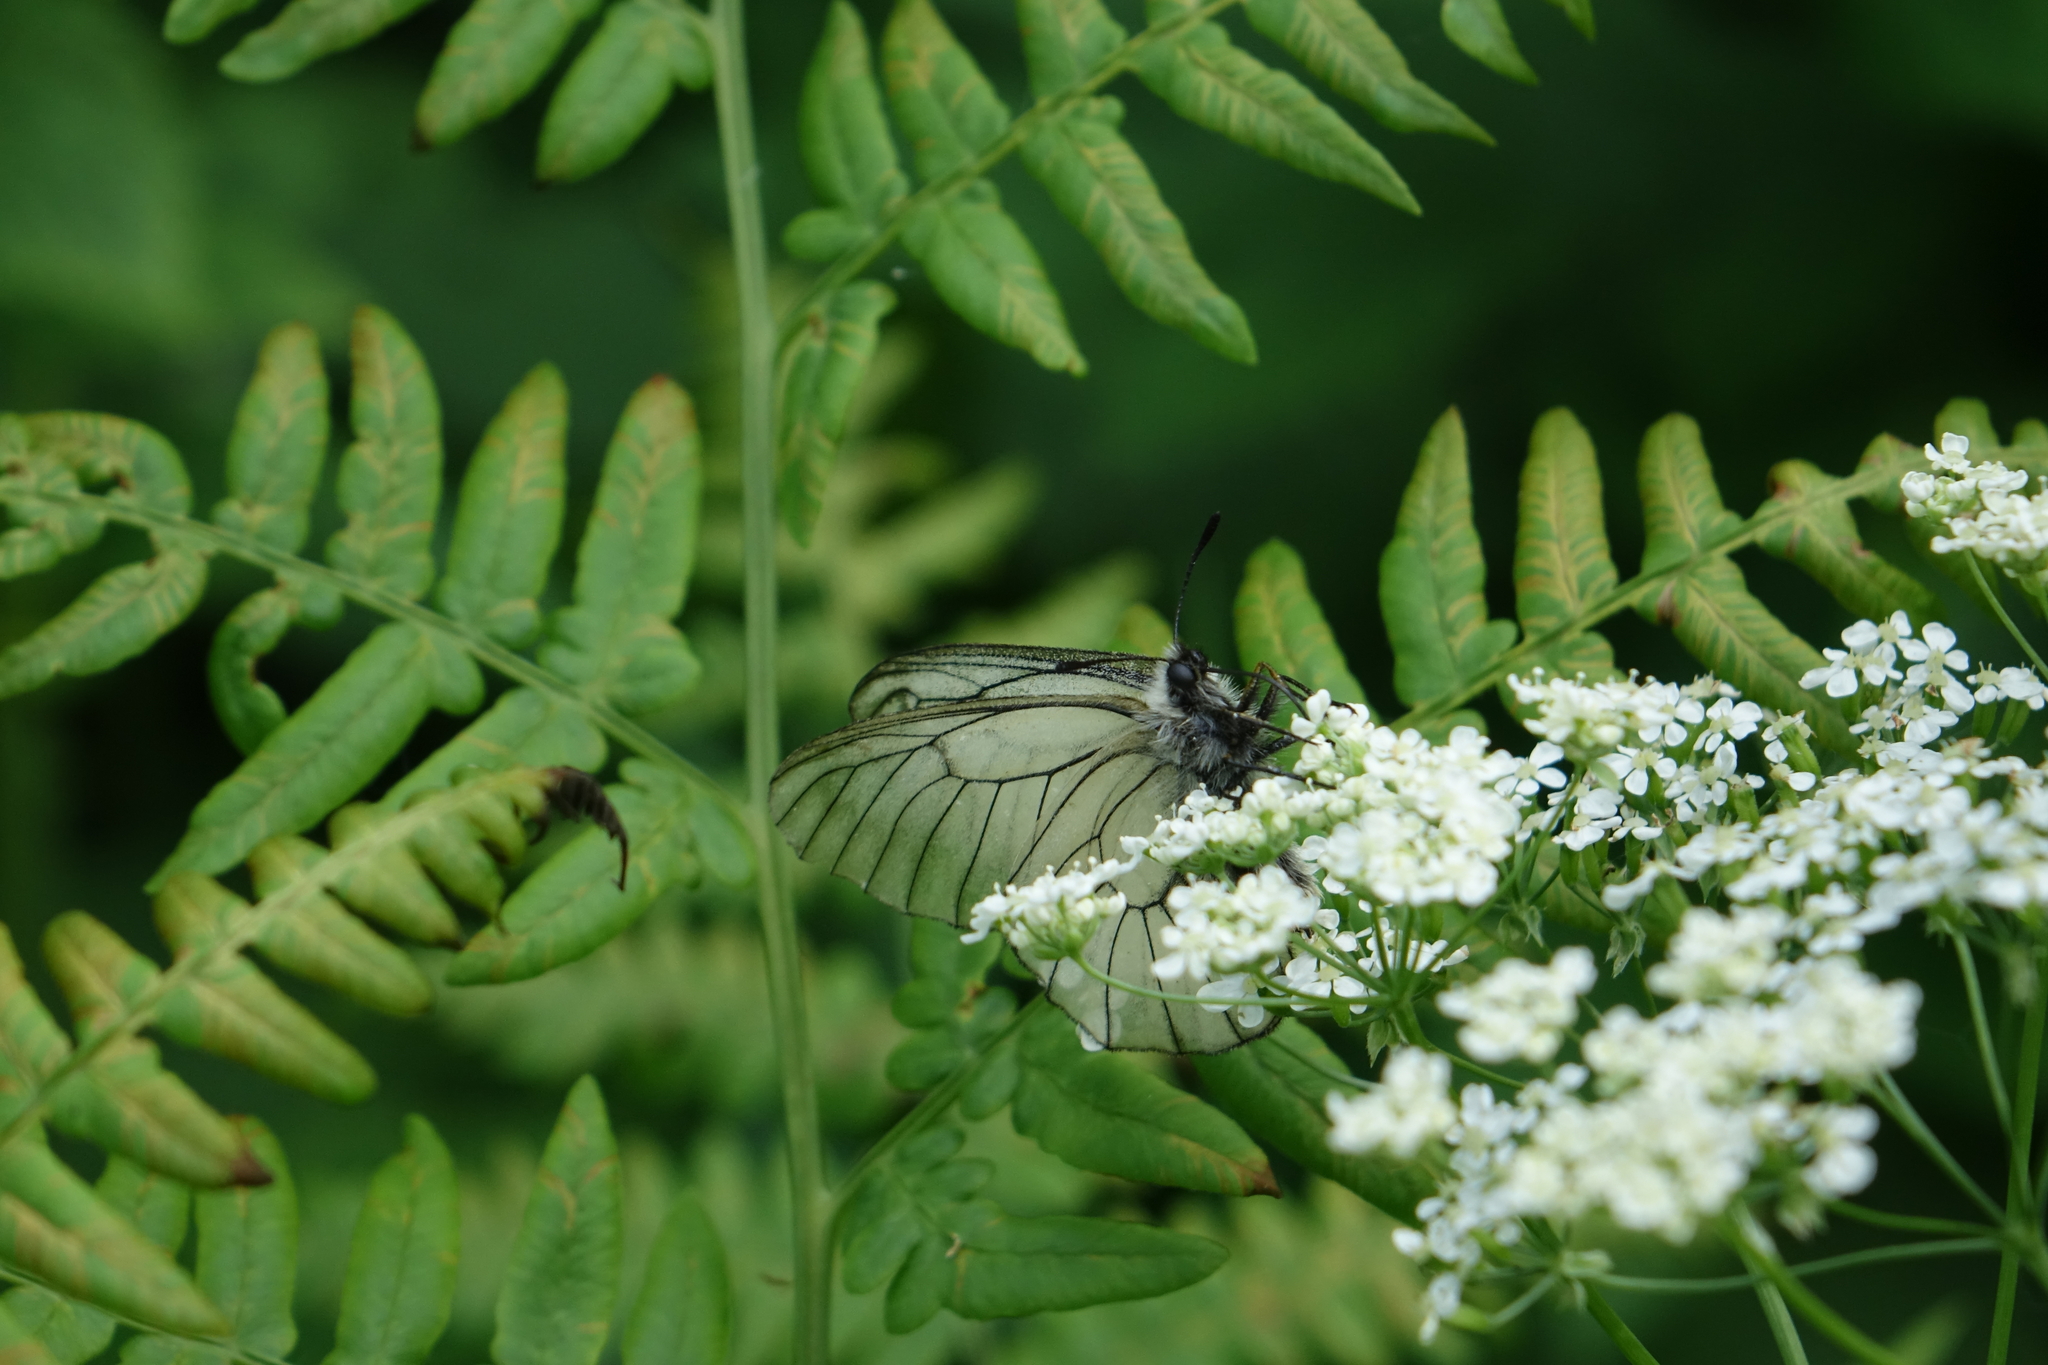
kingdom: Animalia
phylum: Arthropoda
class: Insecta
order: Lepidoptera
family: Papilionidae
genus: Parnassius
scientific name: Parnassius stubbendorfii
